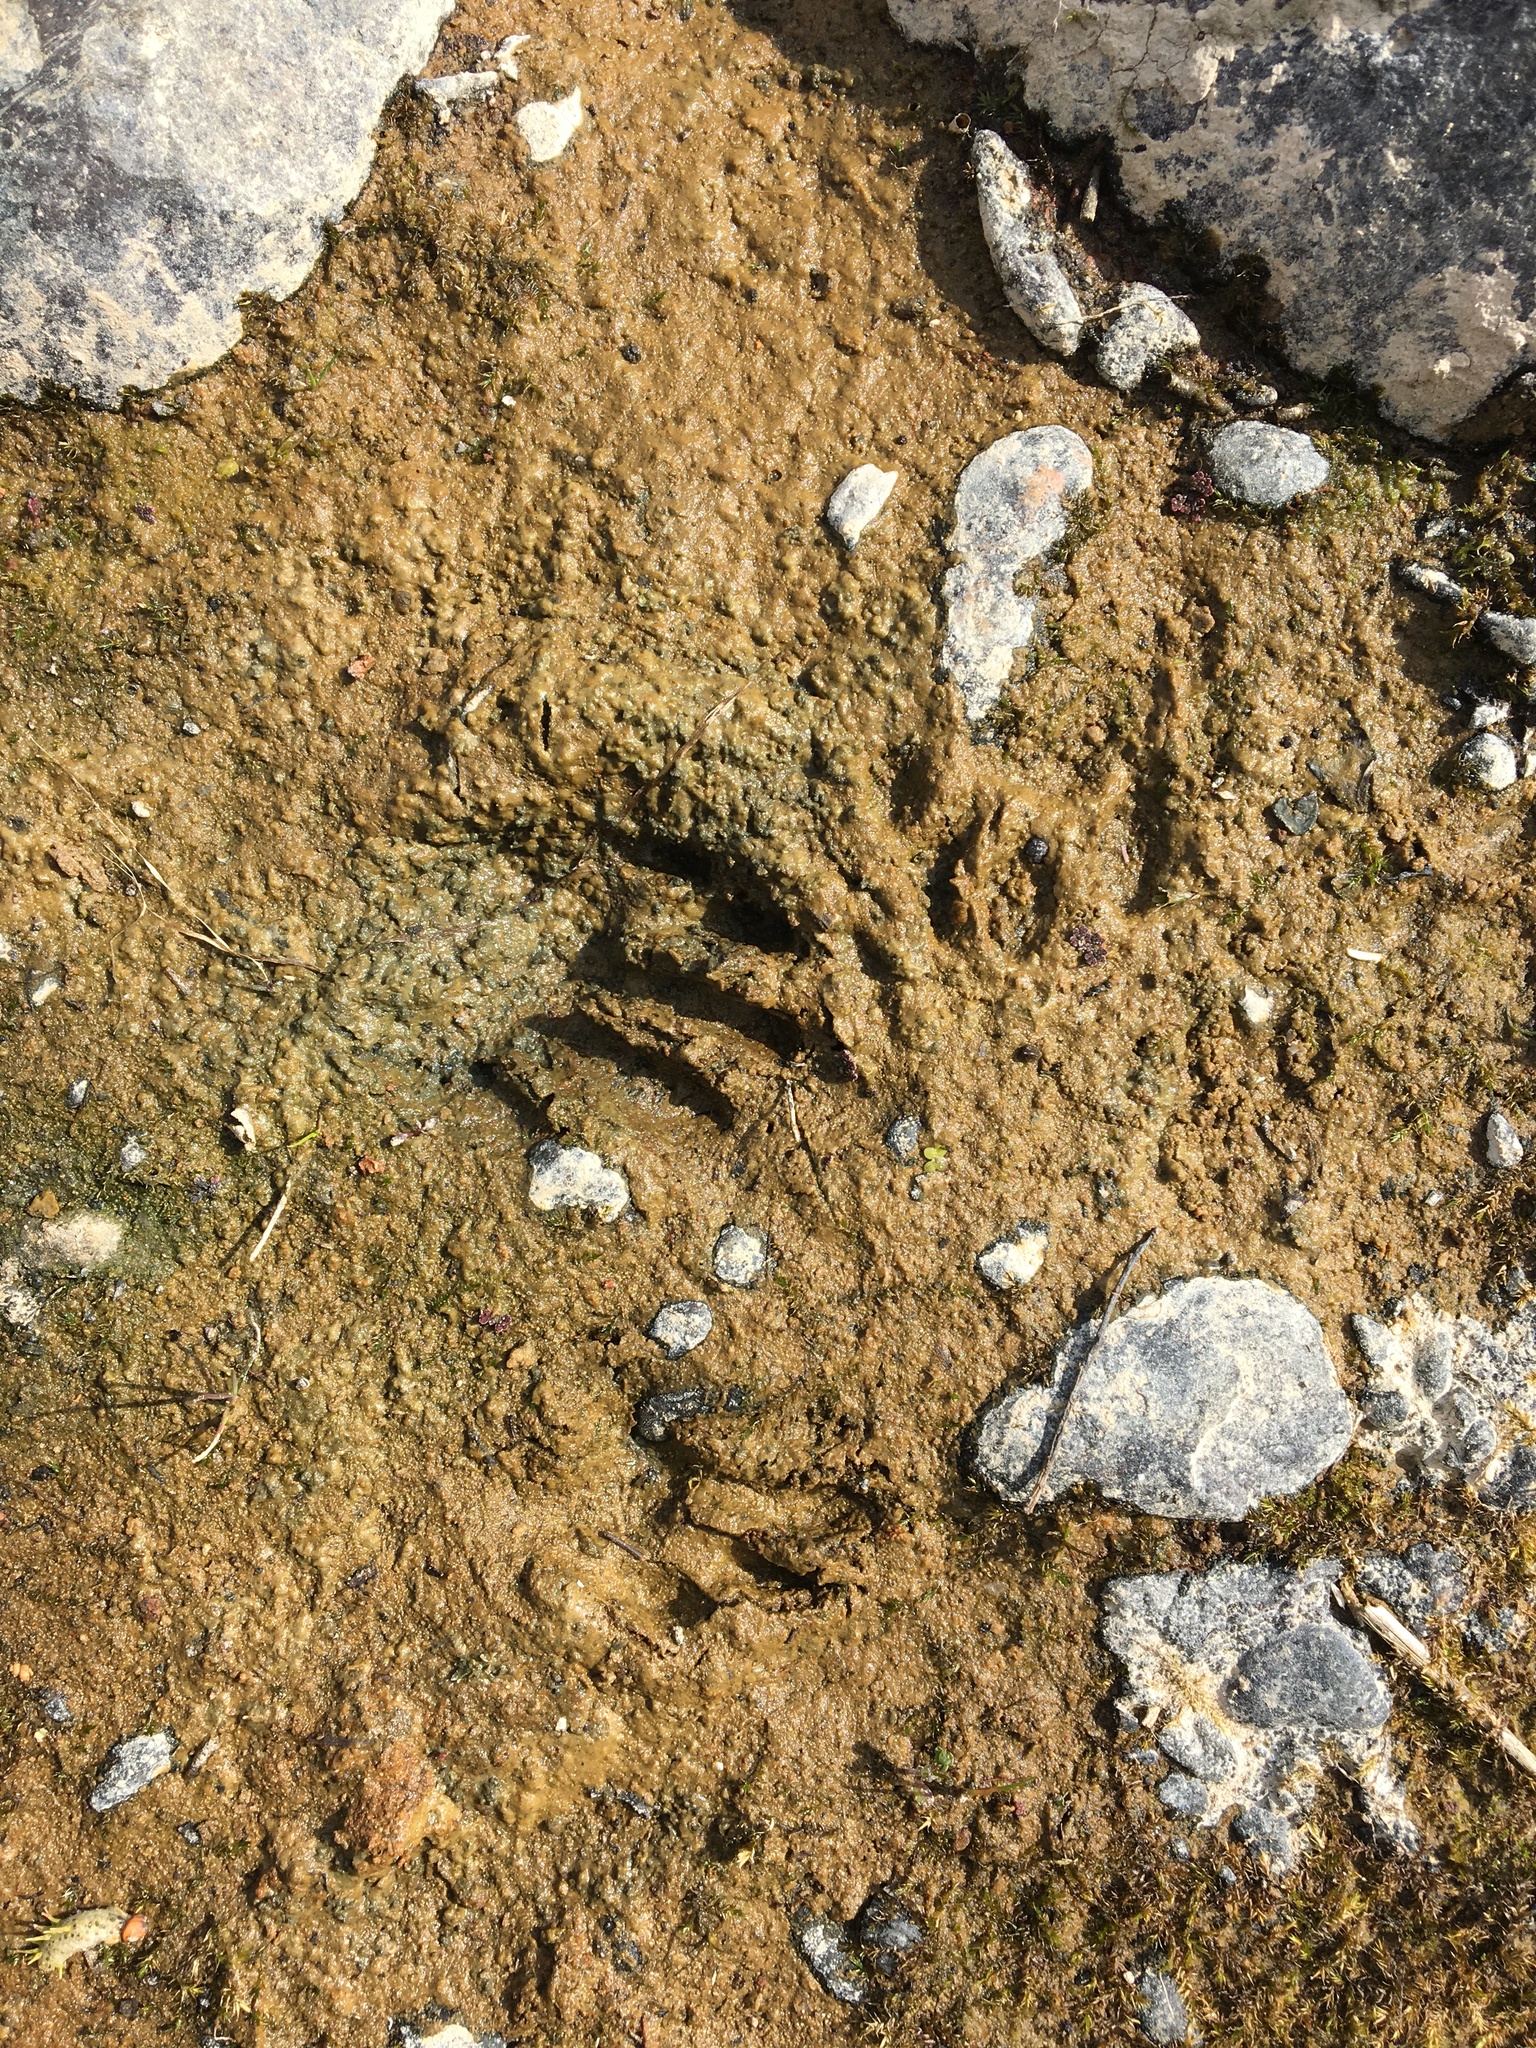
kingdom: Animalia
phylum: Chordata
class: Mammalia
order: Carnivora
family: Procyonidae
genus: Procyon
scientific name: Procyon lotor
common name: Raccoon
